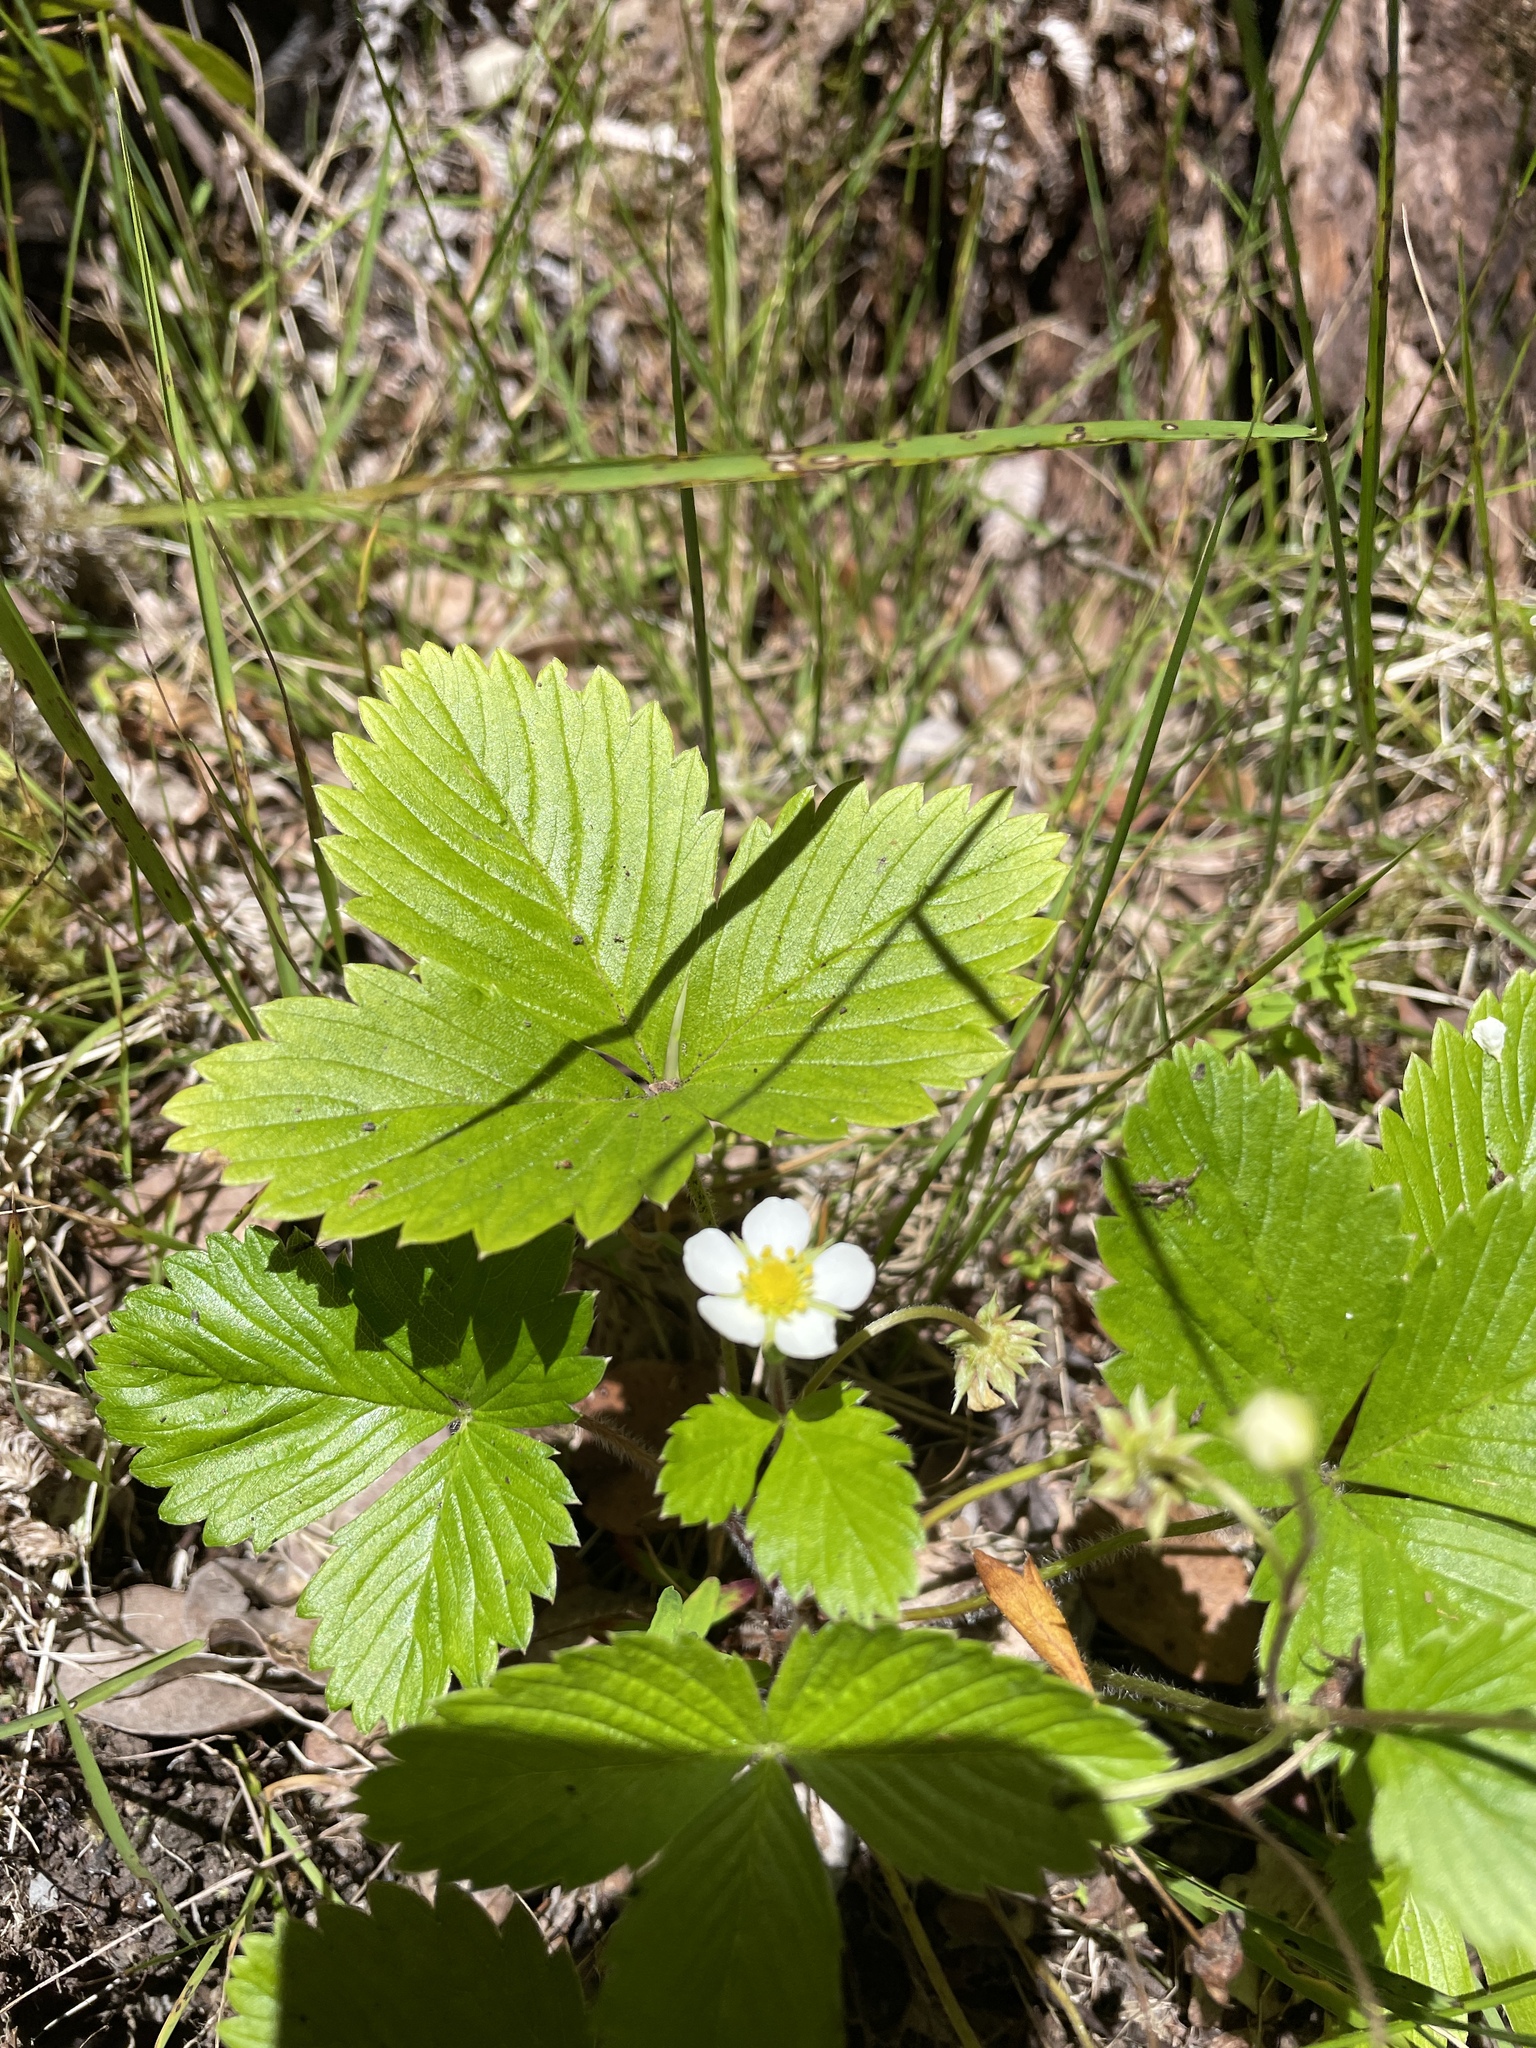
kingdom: Plantae
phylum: Tracheophyta
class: Magnoliopsida
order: Rosales
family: Rosaceae
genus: Fragaria
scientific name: Fragaria vesca
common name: Wild strawberry
